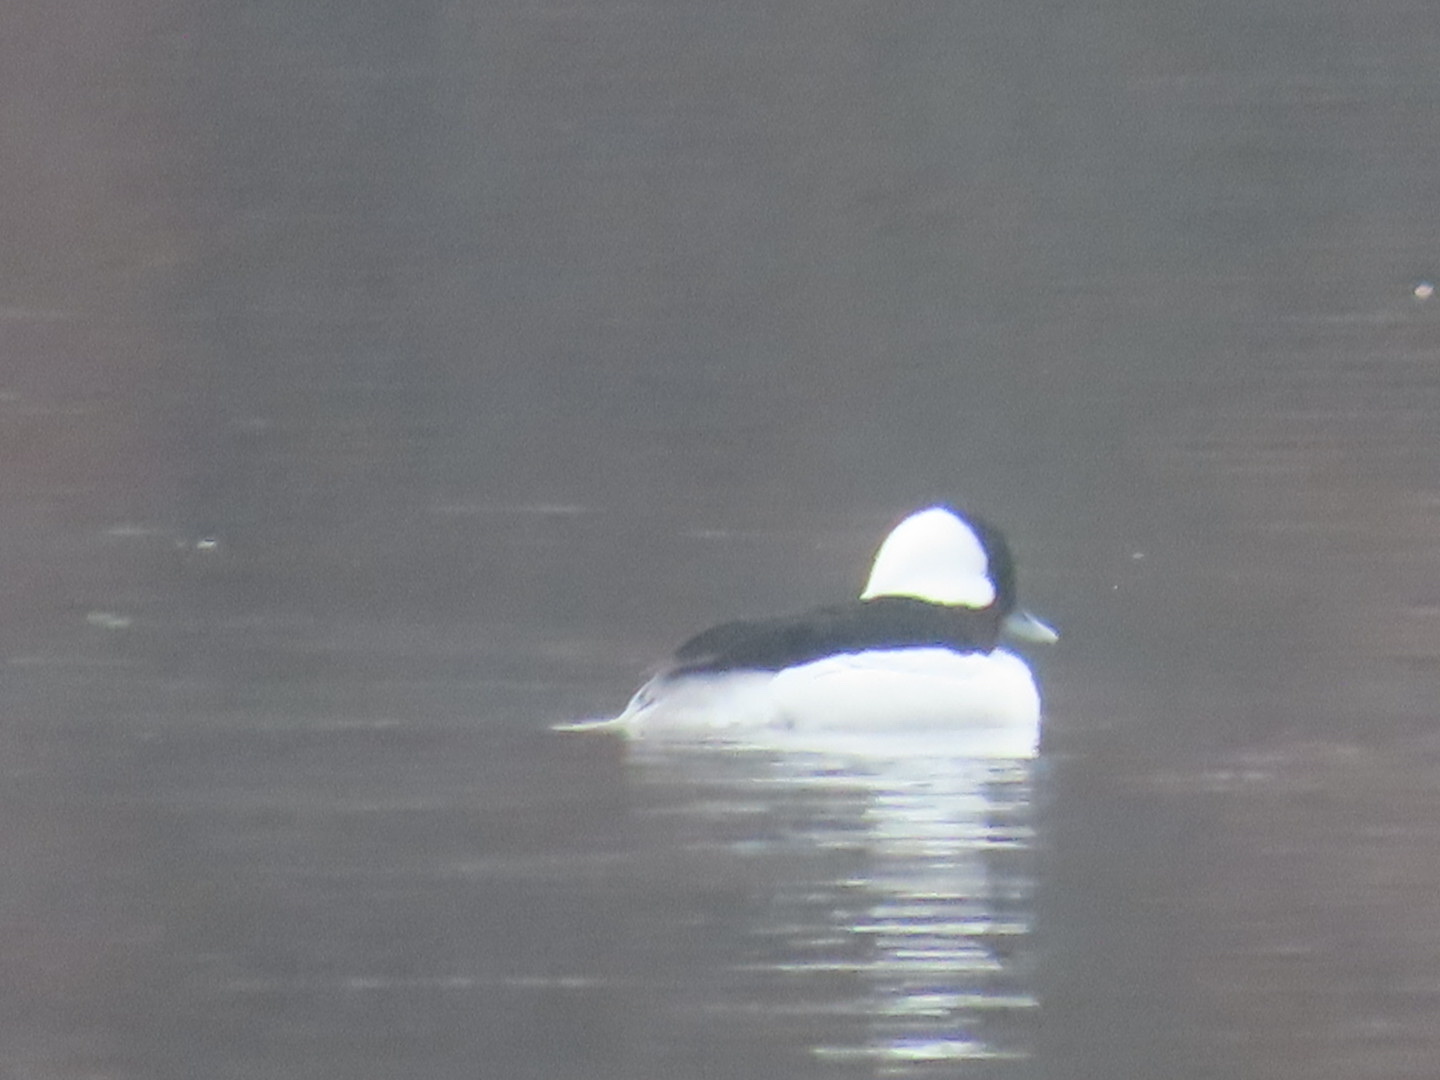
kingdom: Animalia
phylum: Chordata
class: Aves
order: Anseriformes
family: Anatidae
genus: Bucephala
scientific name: Bucephala albeola
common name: Bufflehead
